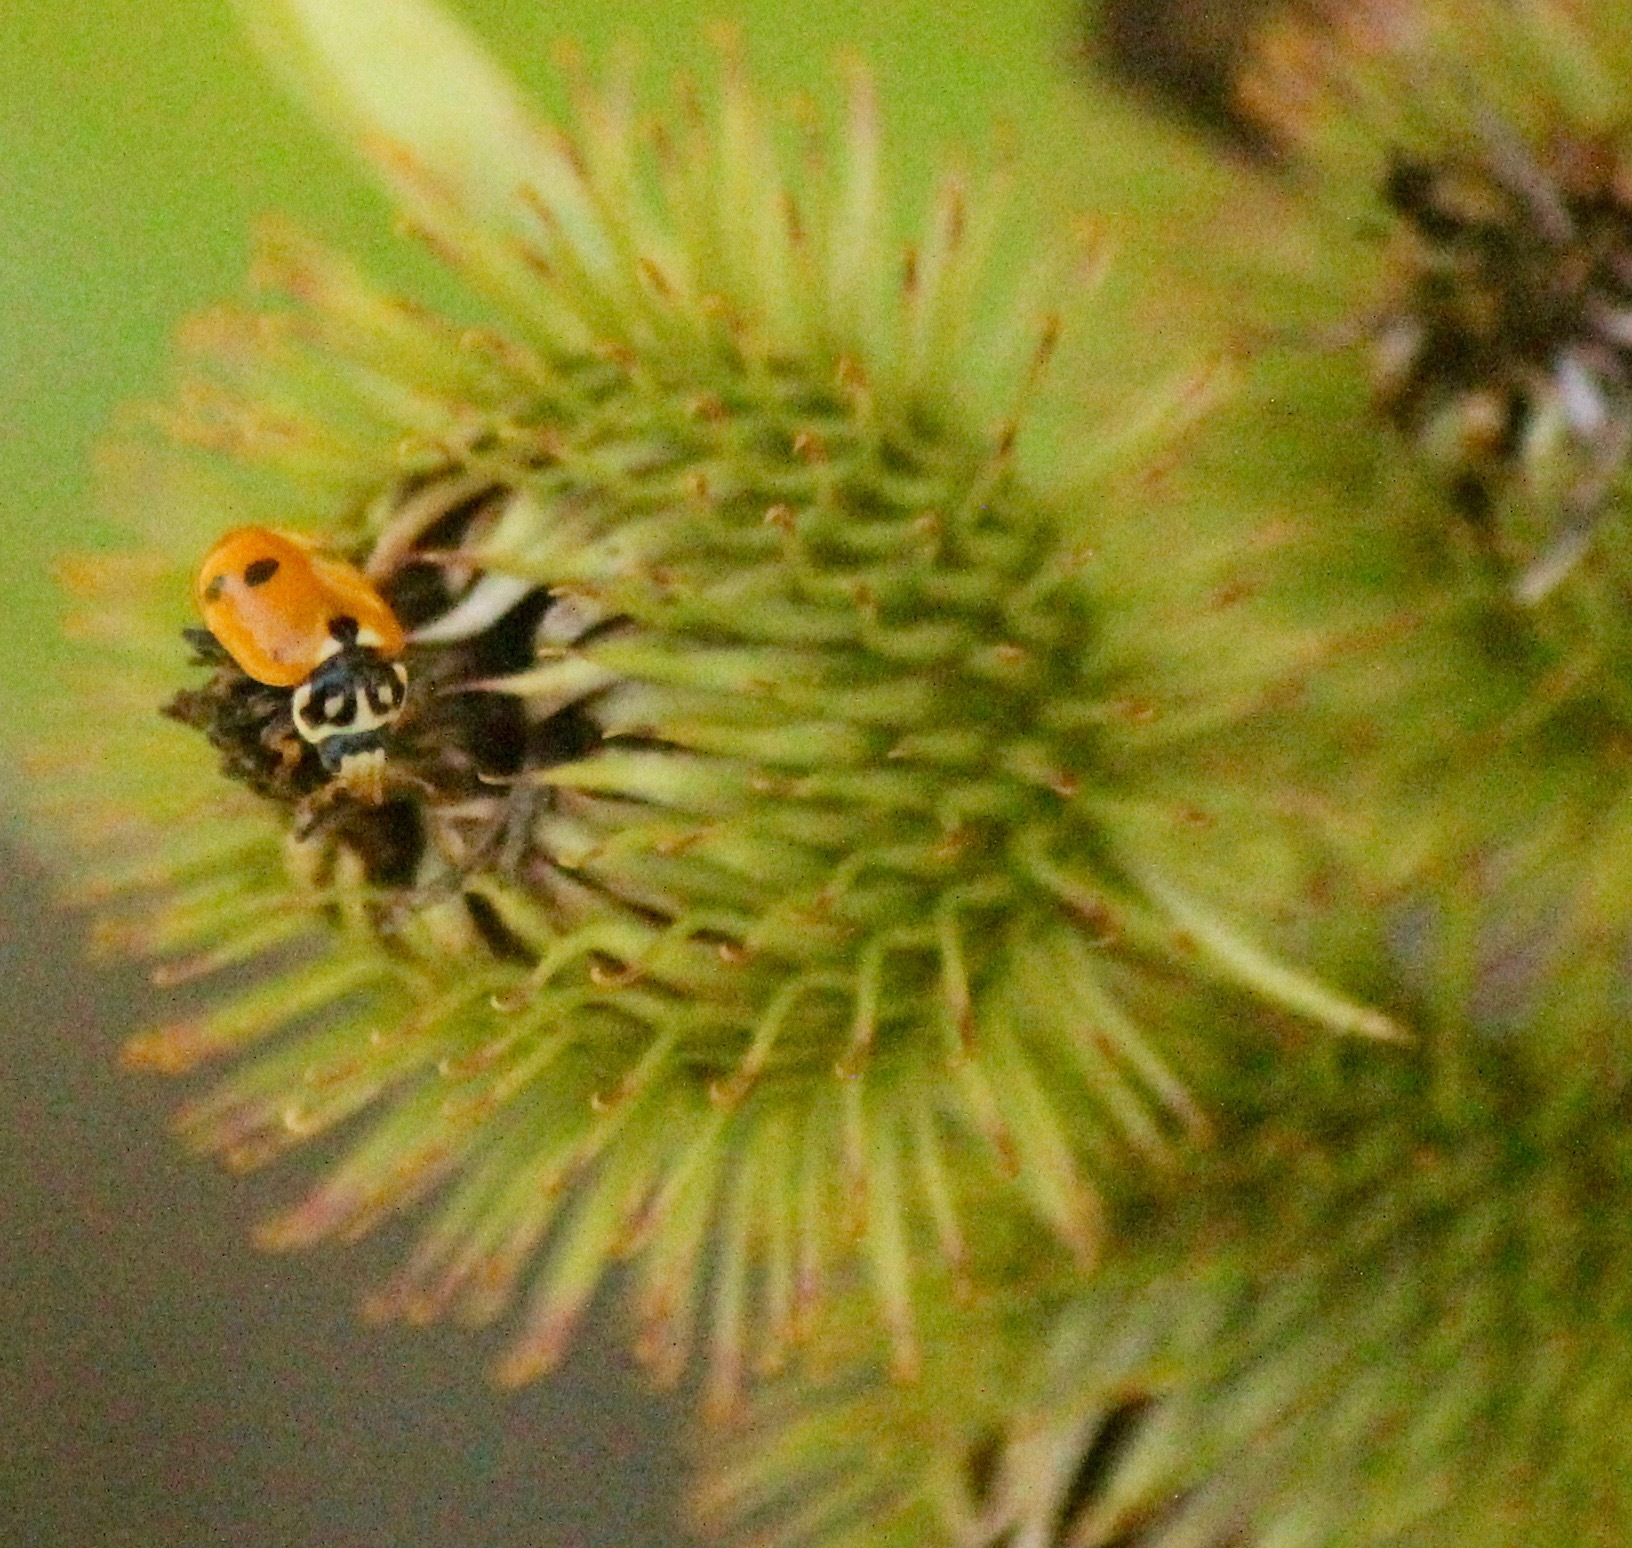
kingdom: Animalia
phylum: Arthropoda
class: Insecta
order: Coleoptera
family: Coccinellidae
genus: Hippodamia
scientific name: Hippodamia variegata
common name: Ladybird beetle
